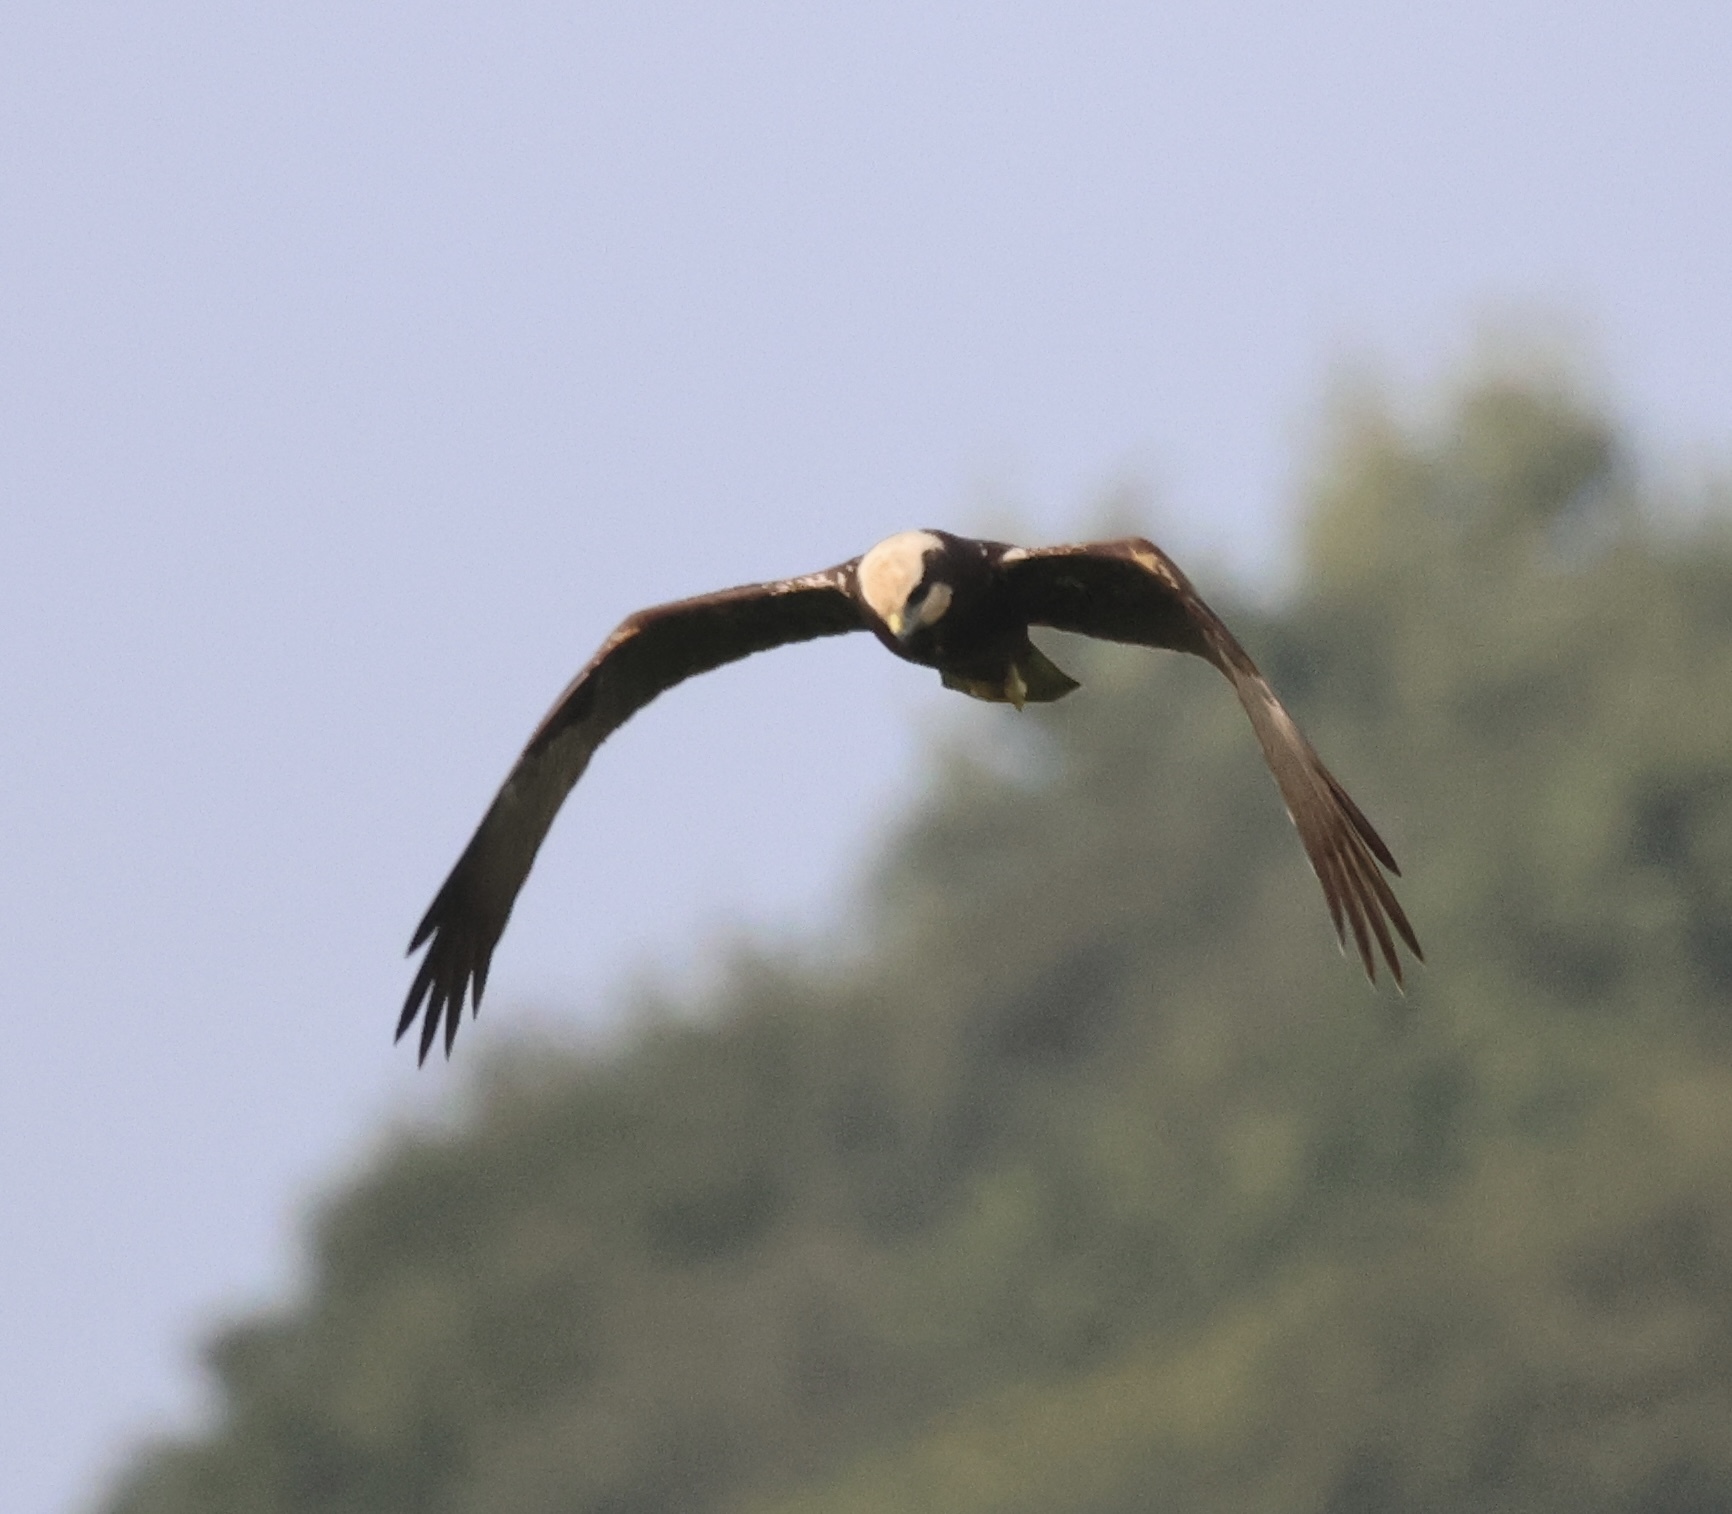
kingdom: Animalia
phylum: Chordata
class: Aves
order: Accipitriformes
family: Accipitridae
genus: Circus
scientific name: Circus aeruginosus
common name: Western marsh harrier
